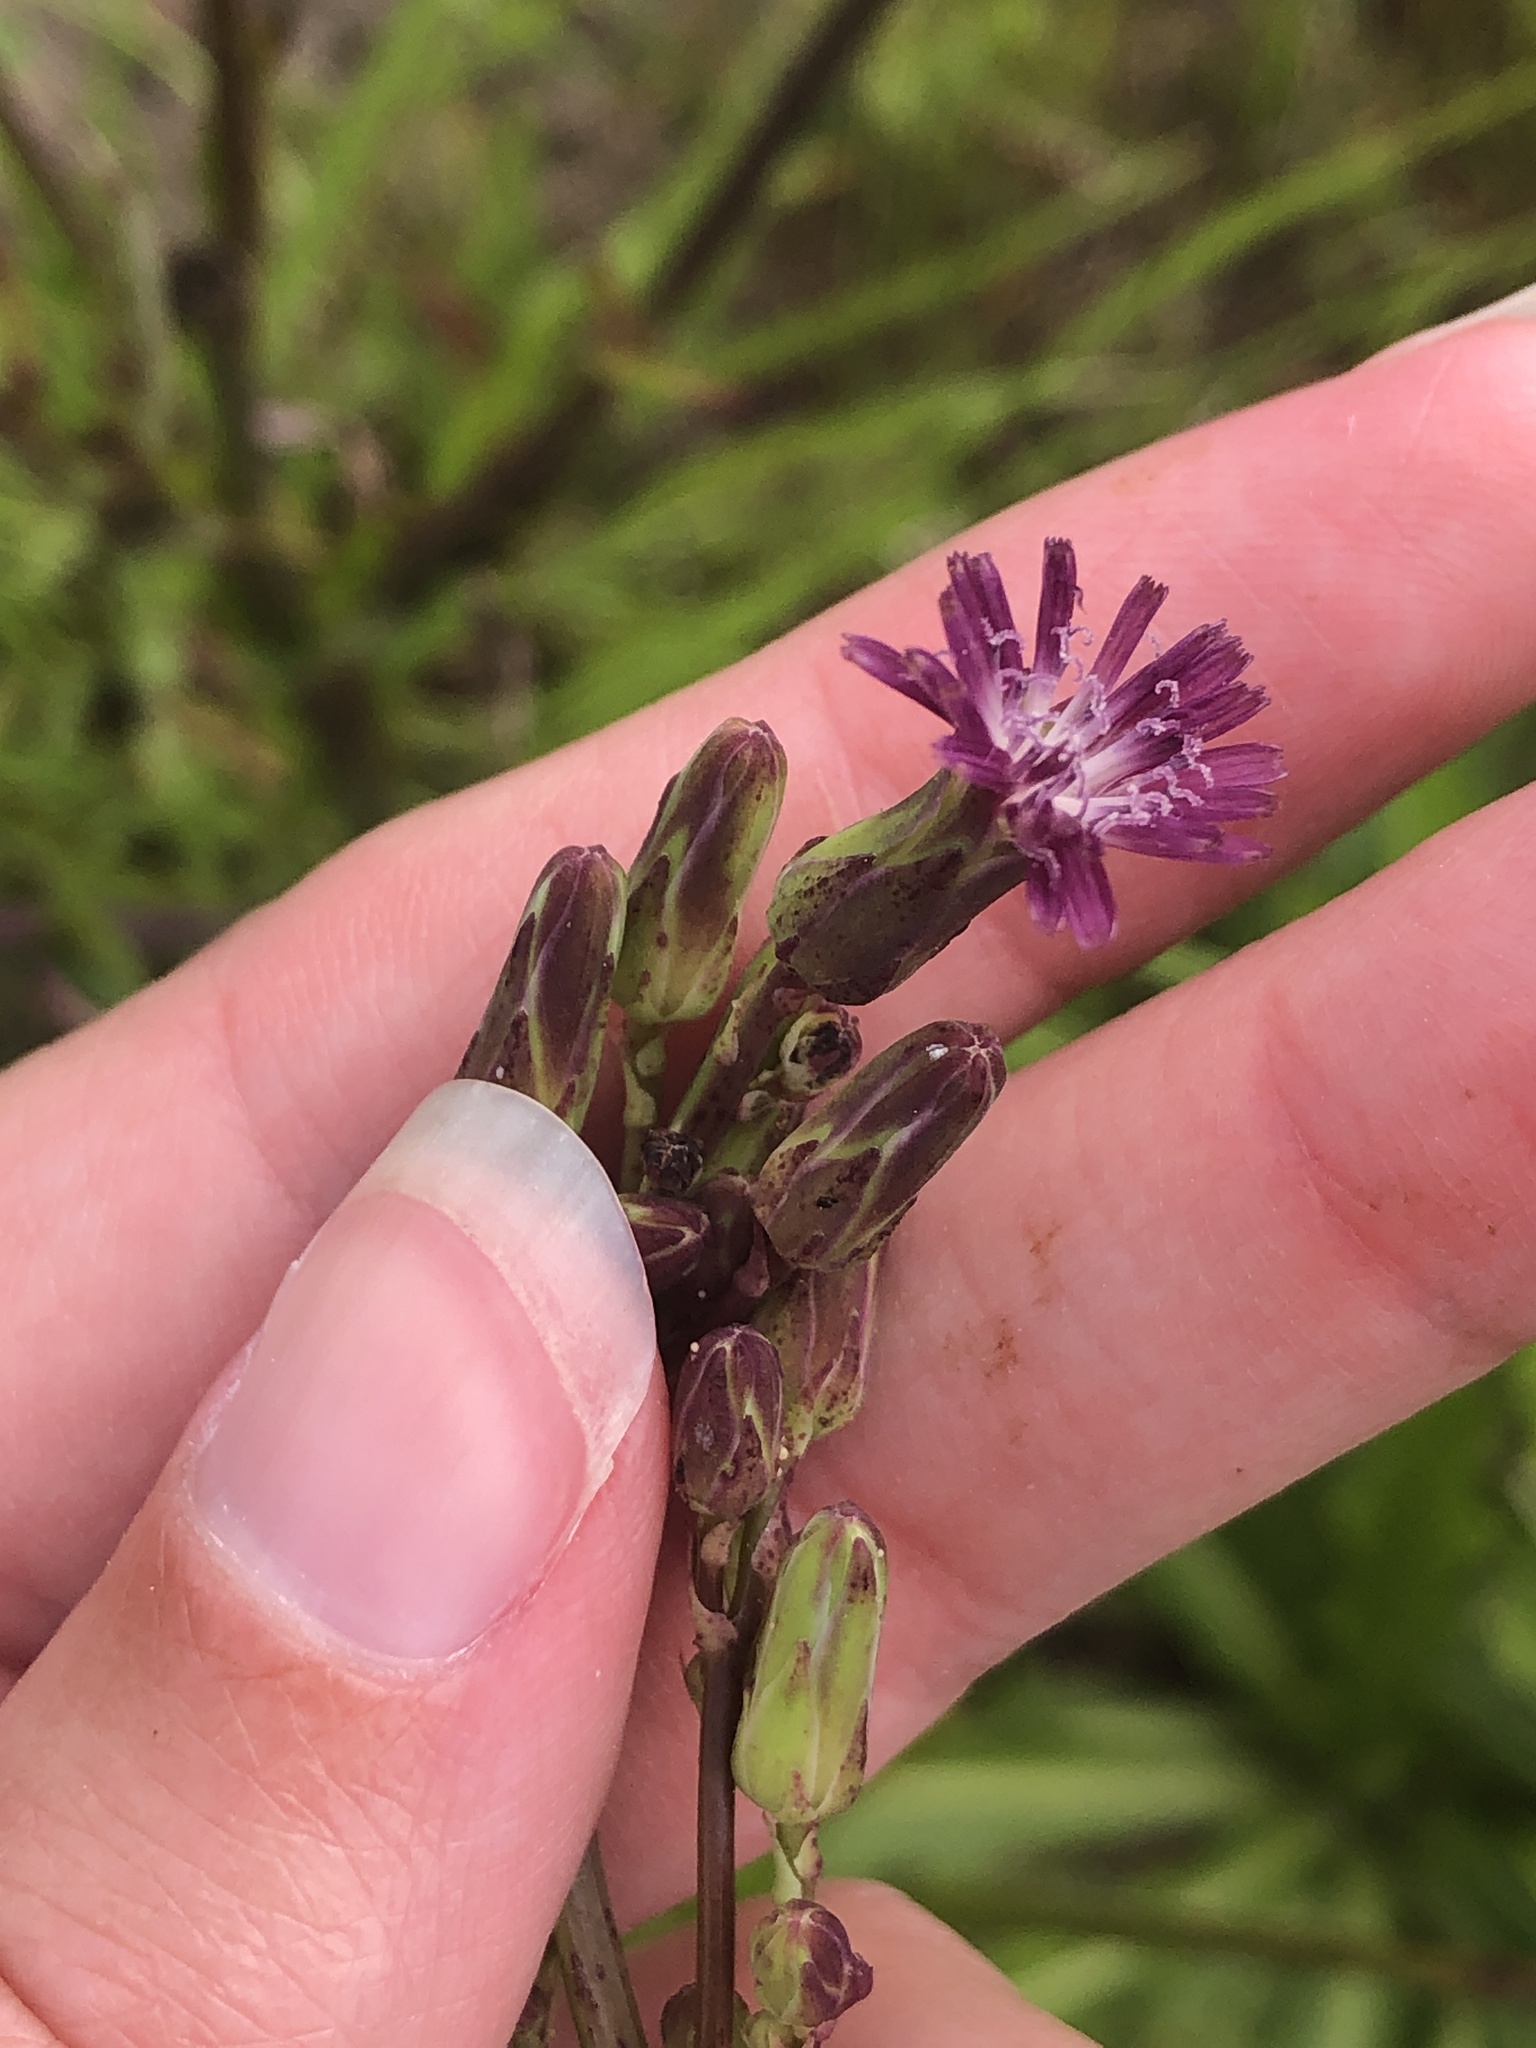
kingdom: Plantae
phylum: Tracheophyta
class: Magnoliopsida
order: Asterales
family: Asteraceae
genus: Lactuca
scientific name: Lactuca graminifolia
